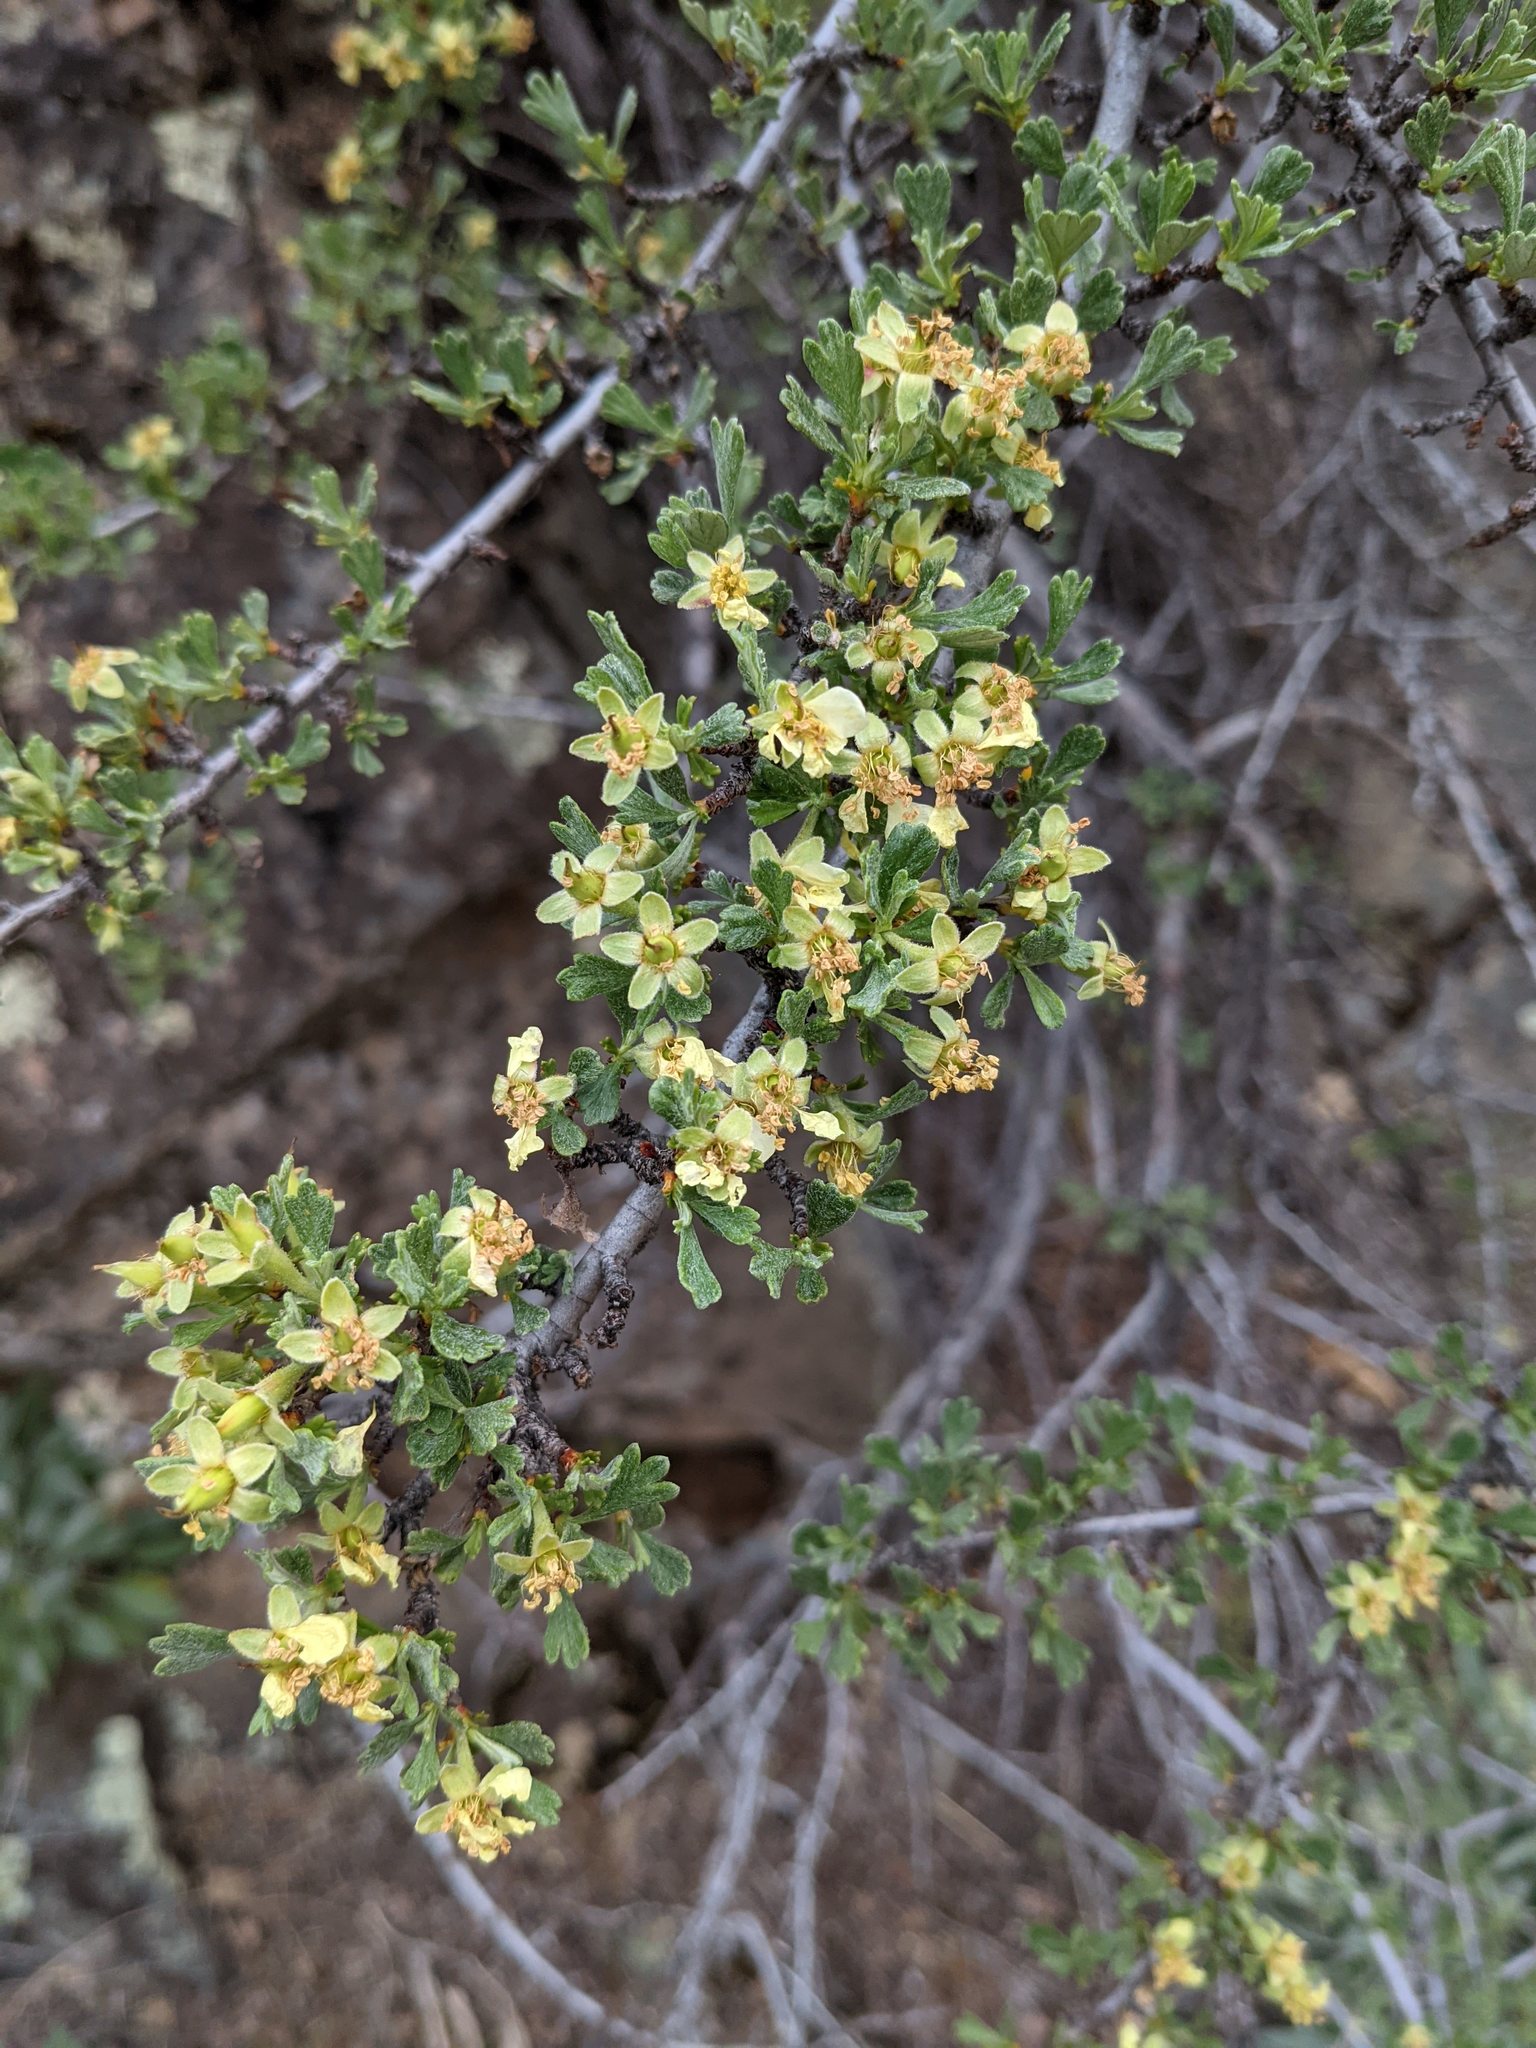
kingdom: Plantae
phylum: Tracheophyta
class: Magnoliopsida
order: Rosales
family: Rosaceae
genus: Purshia
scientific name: Purshia tridentata
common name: Antelope bitterbrush
